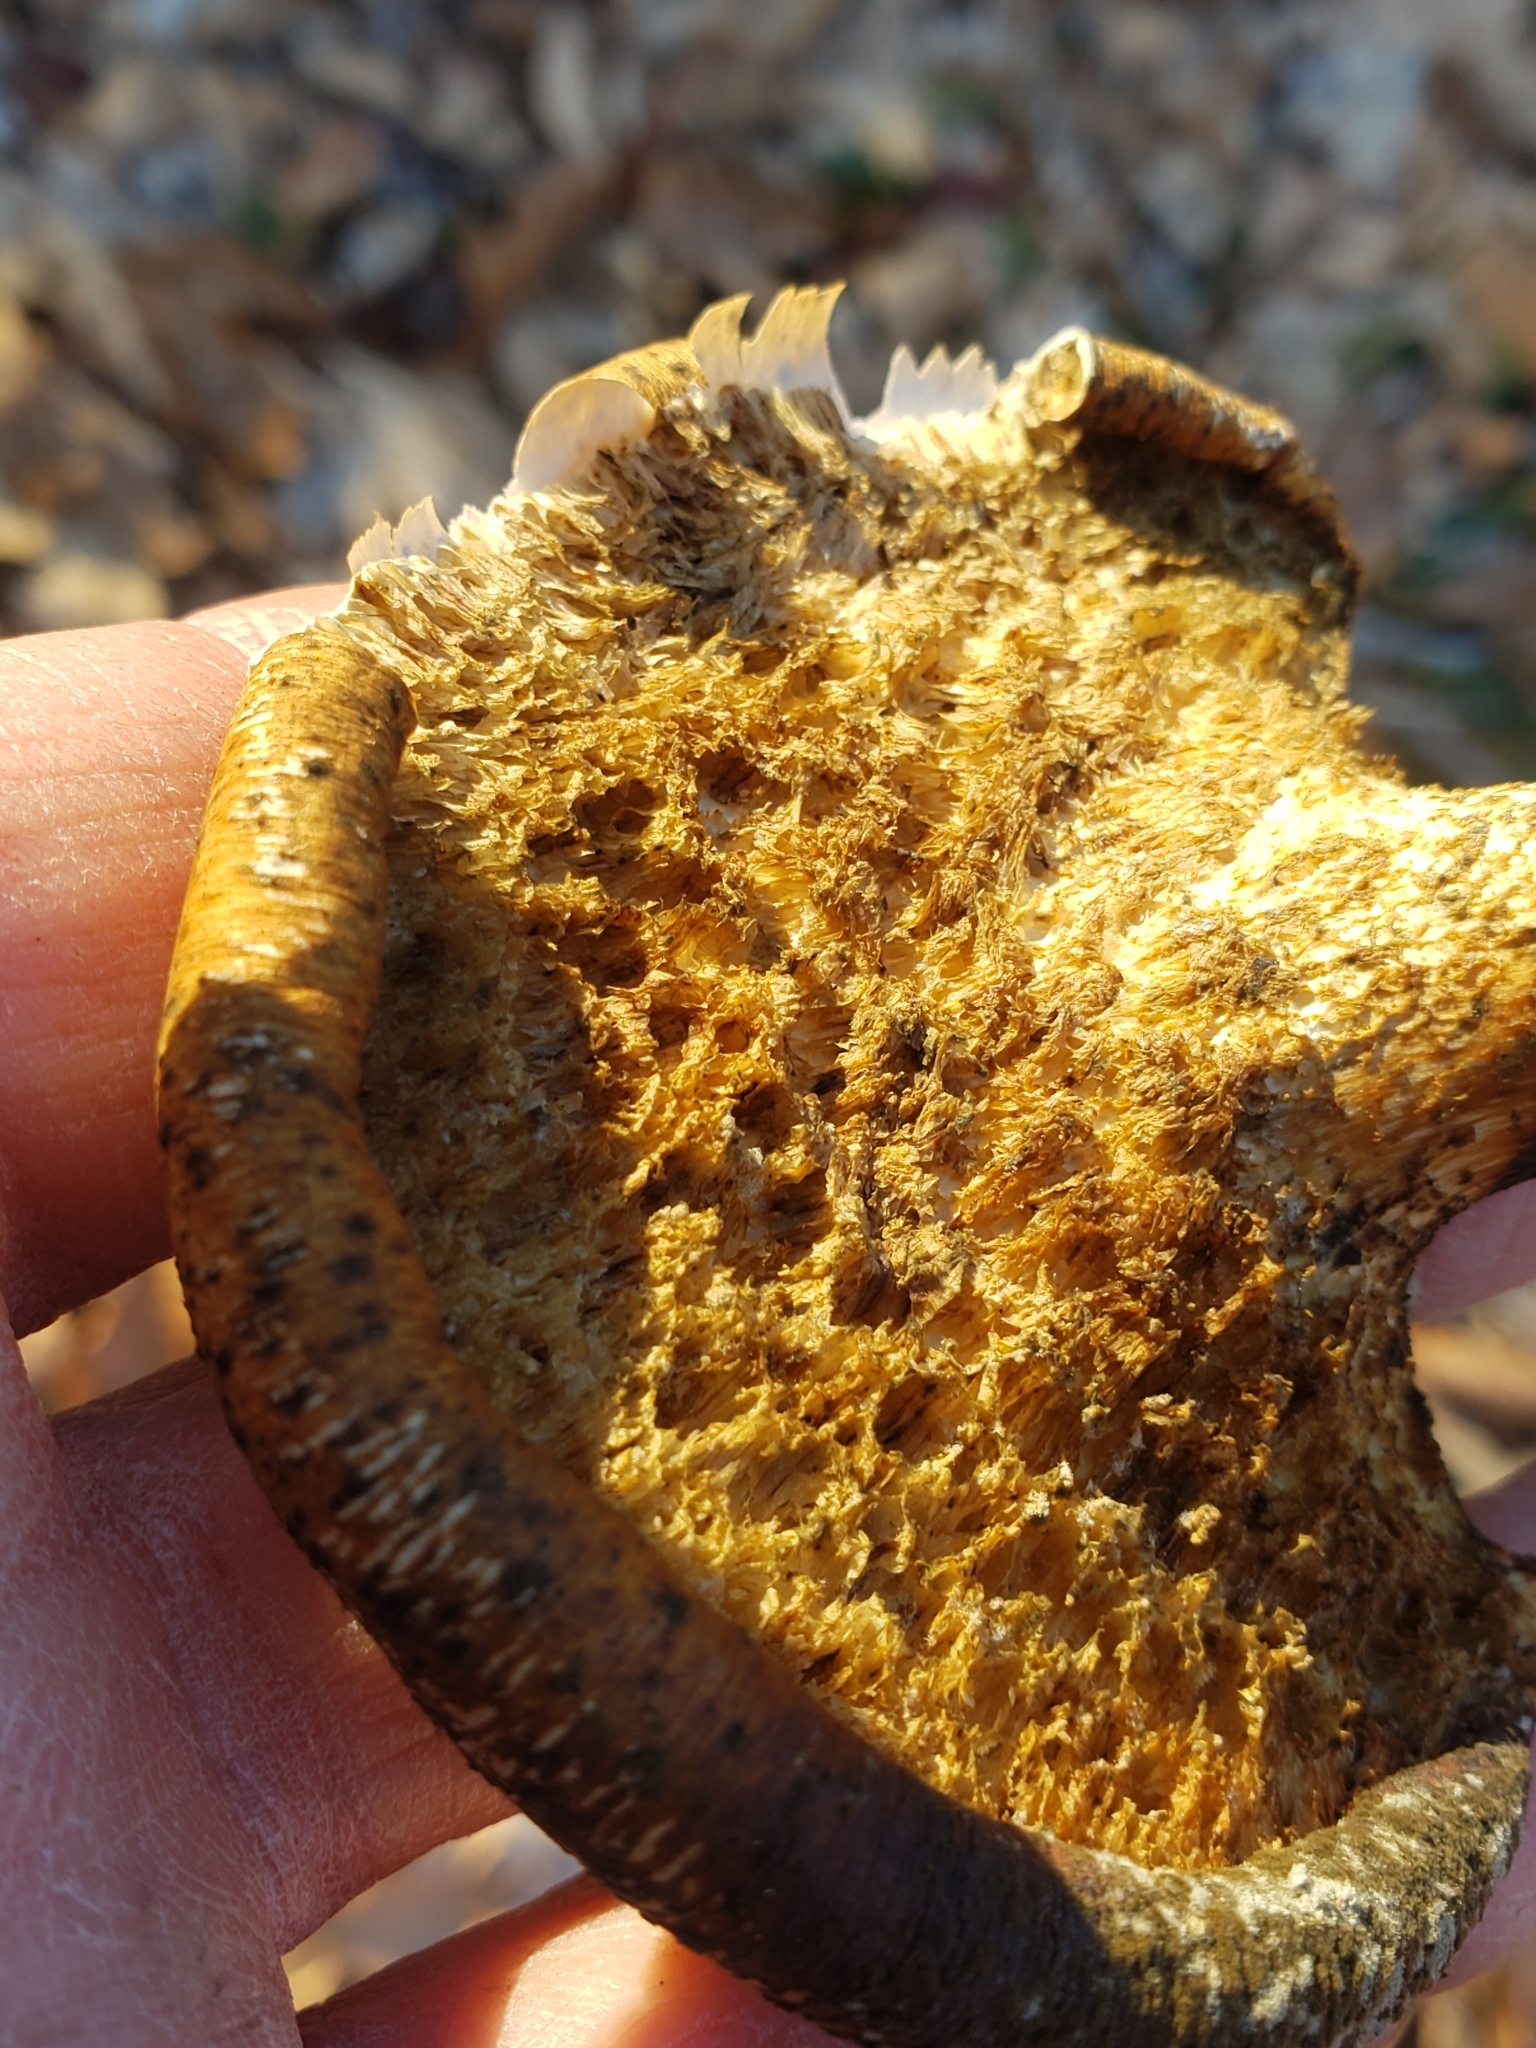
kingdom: Fungi
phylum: Basidiomycota
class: Agaricomycetes
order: Polyporales
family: Polyporaceae
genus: Cerioporus
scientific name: Cerioporus squamosus
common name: Dryad's saddle
